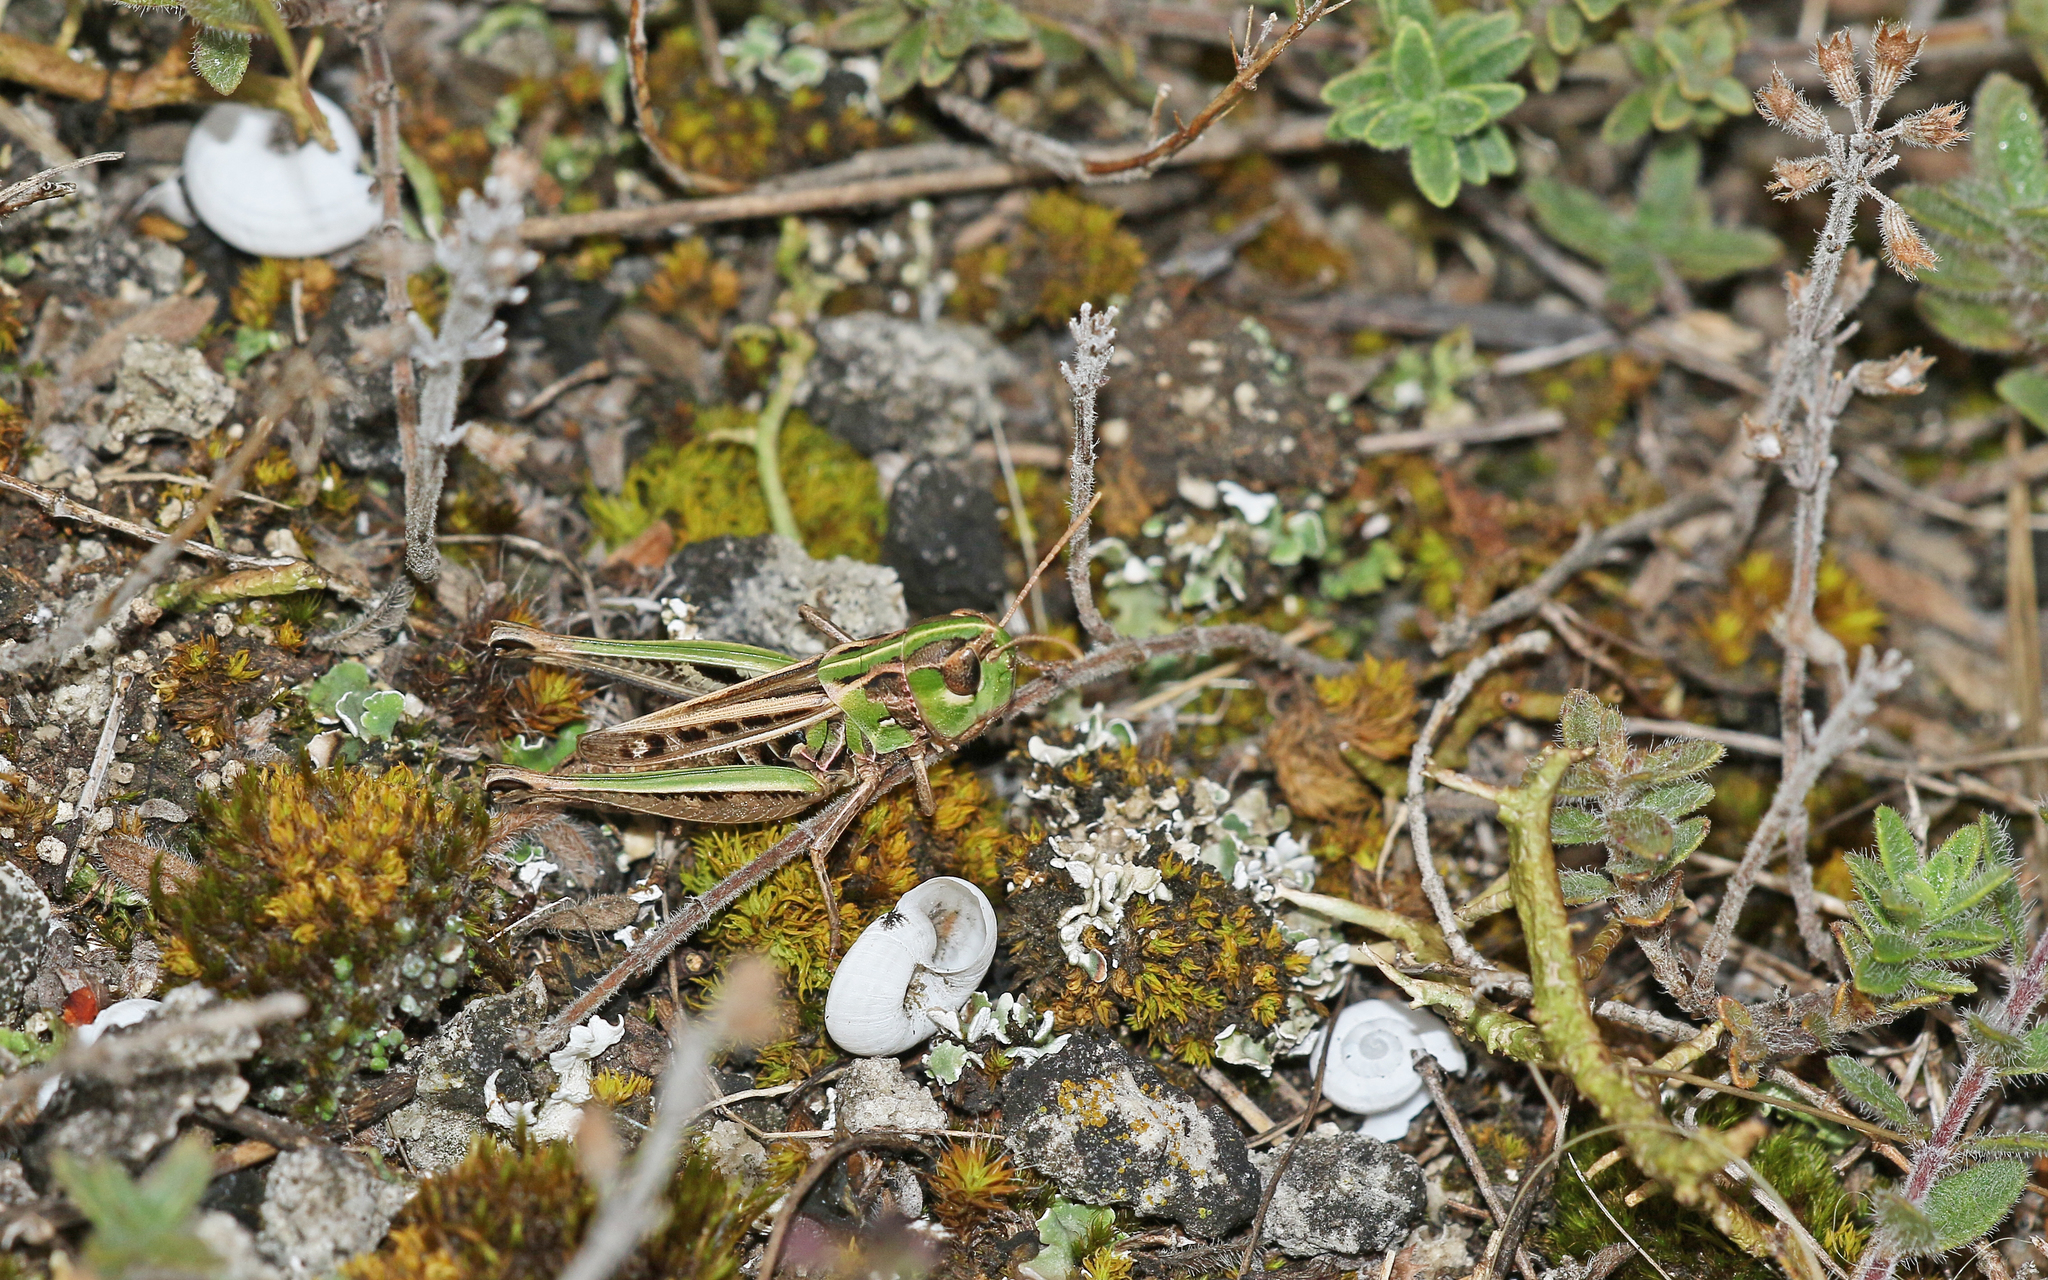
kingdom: Animalia
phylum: Arthropoda
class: Insecta
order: Orthoptera
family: Acrididae
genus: Stenobothrus
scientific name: Stenobothrus nigromaculatus
